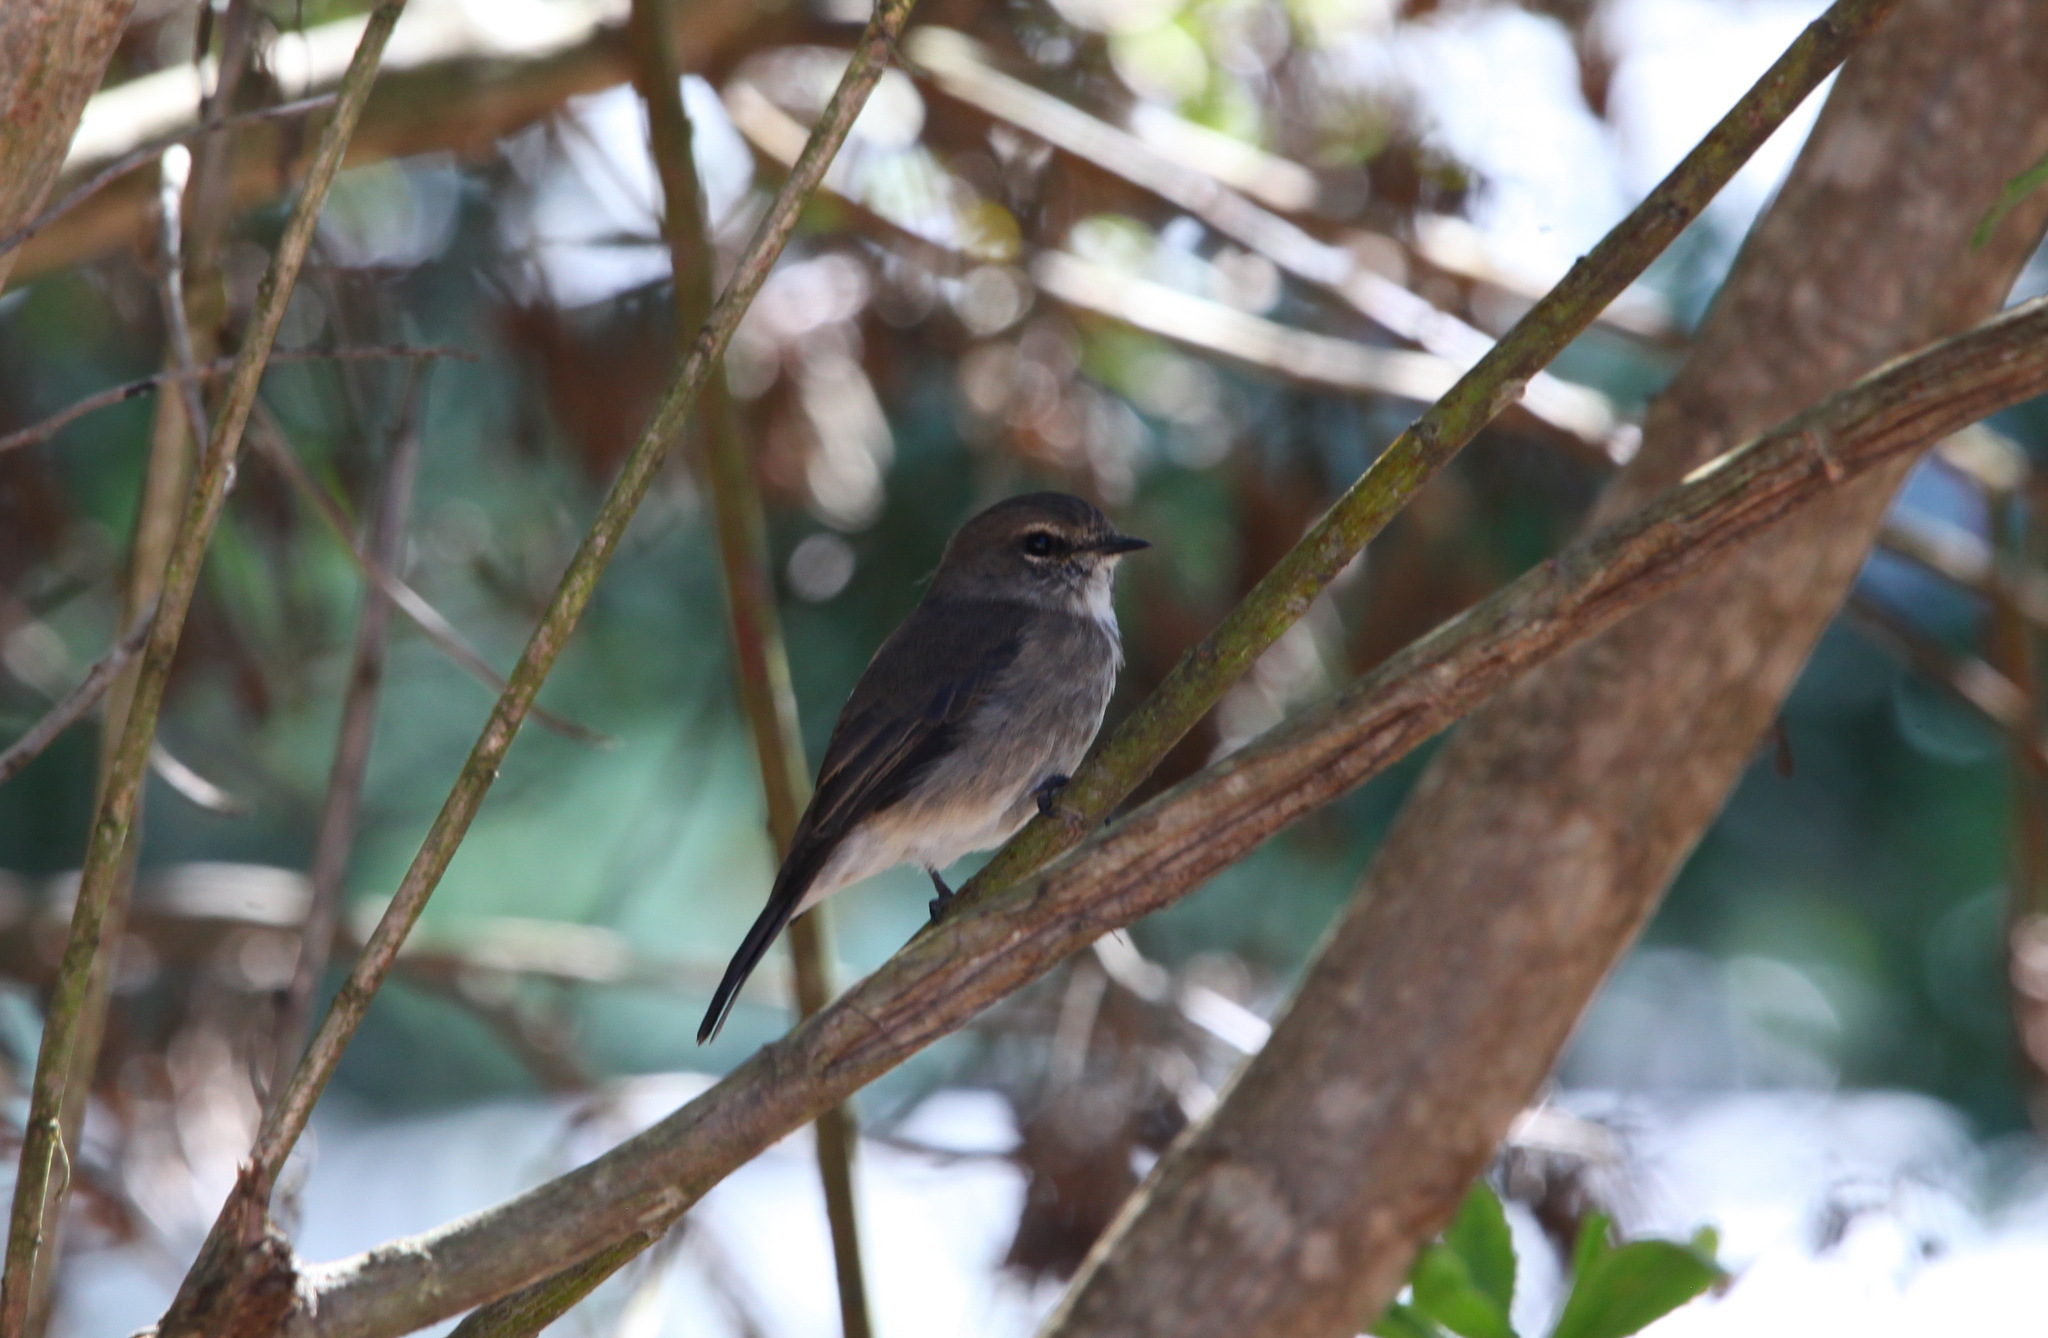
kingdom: Animalia
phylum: Chordata
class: Aves
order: Passeriformes
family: Muscicapidae
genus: Muscicapa
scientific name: Muscicapa adusta
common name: African dusky flycatcher
